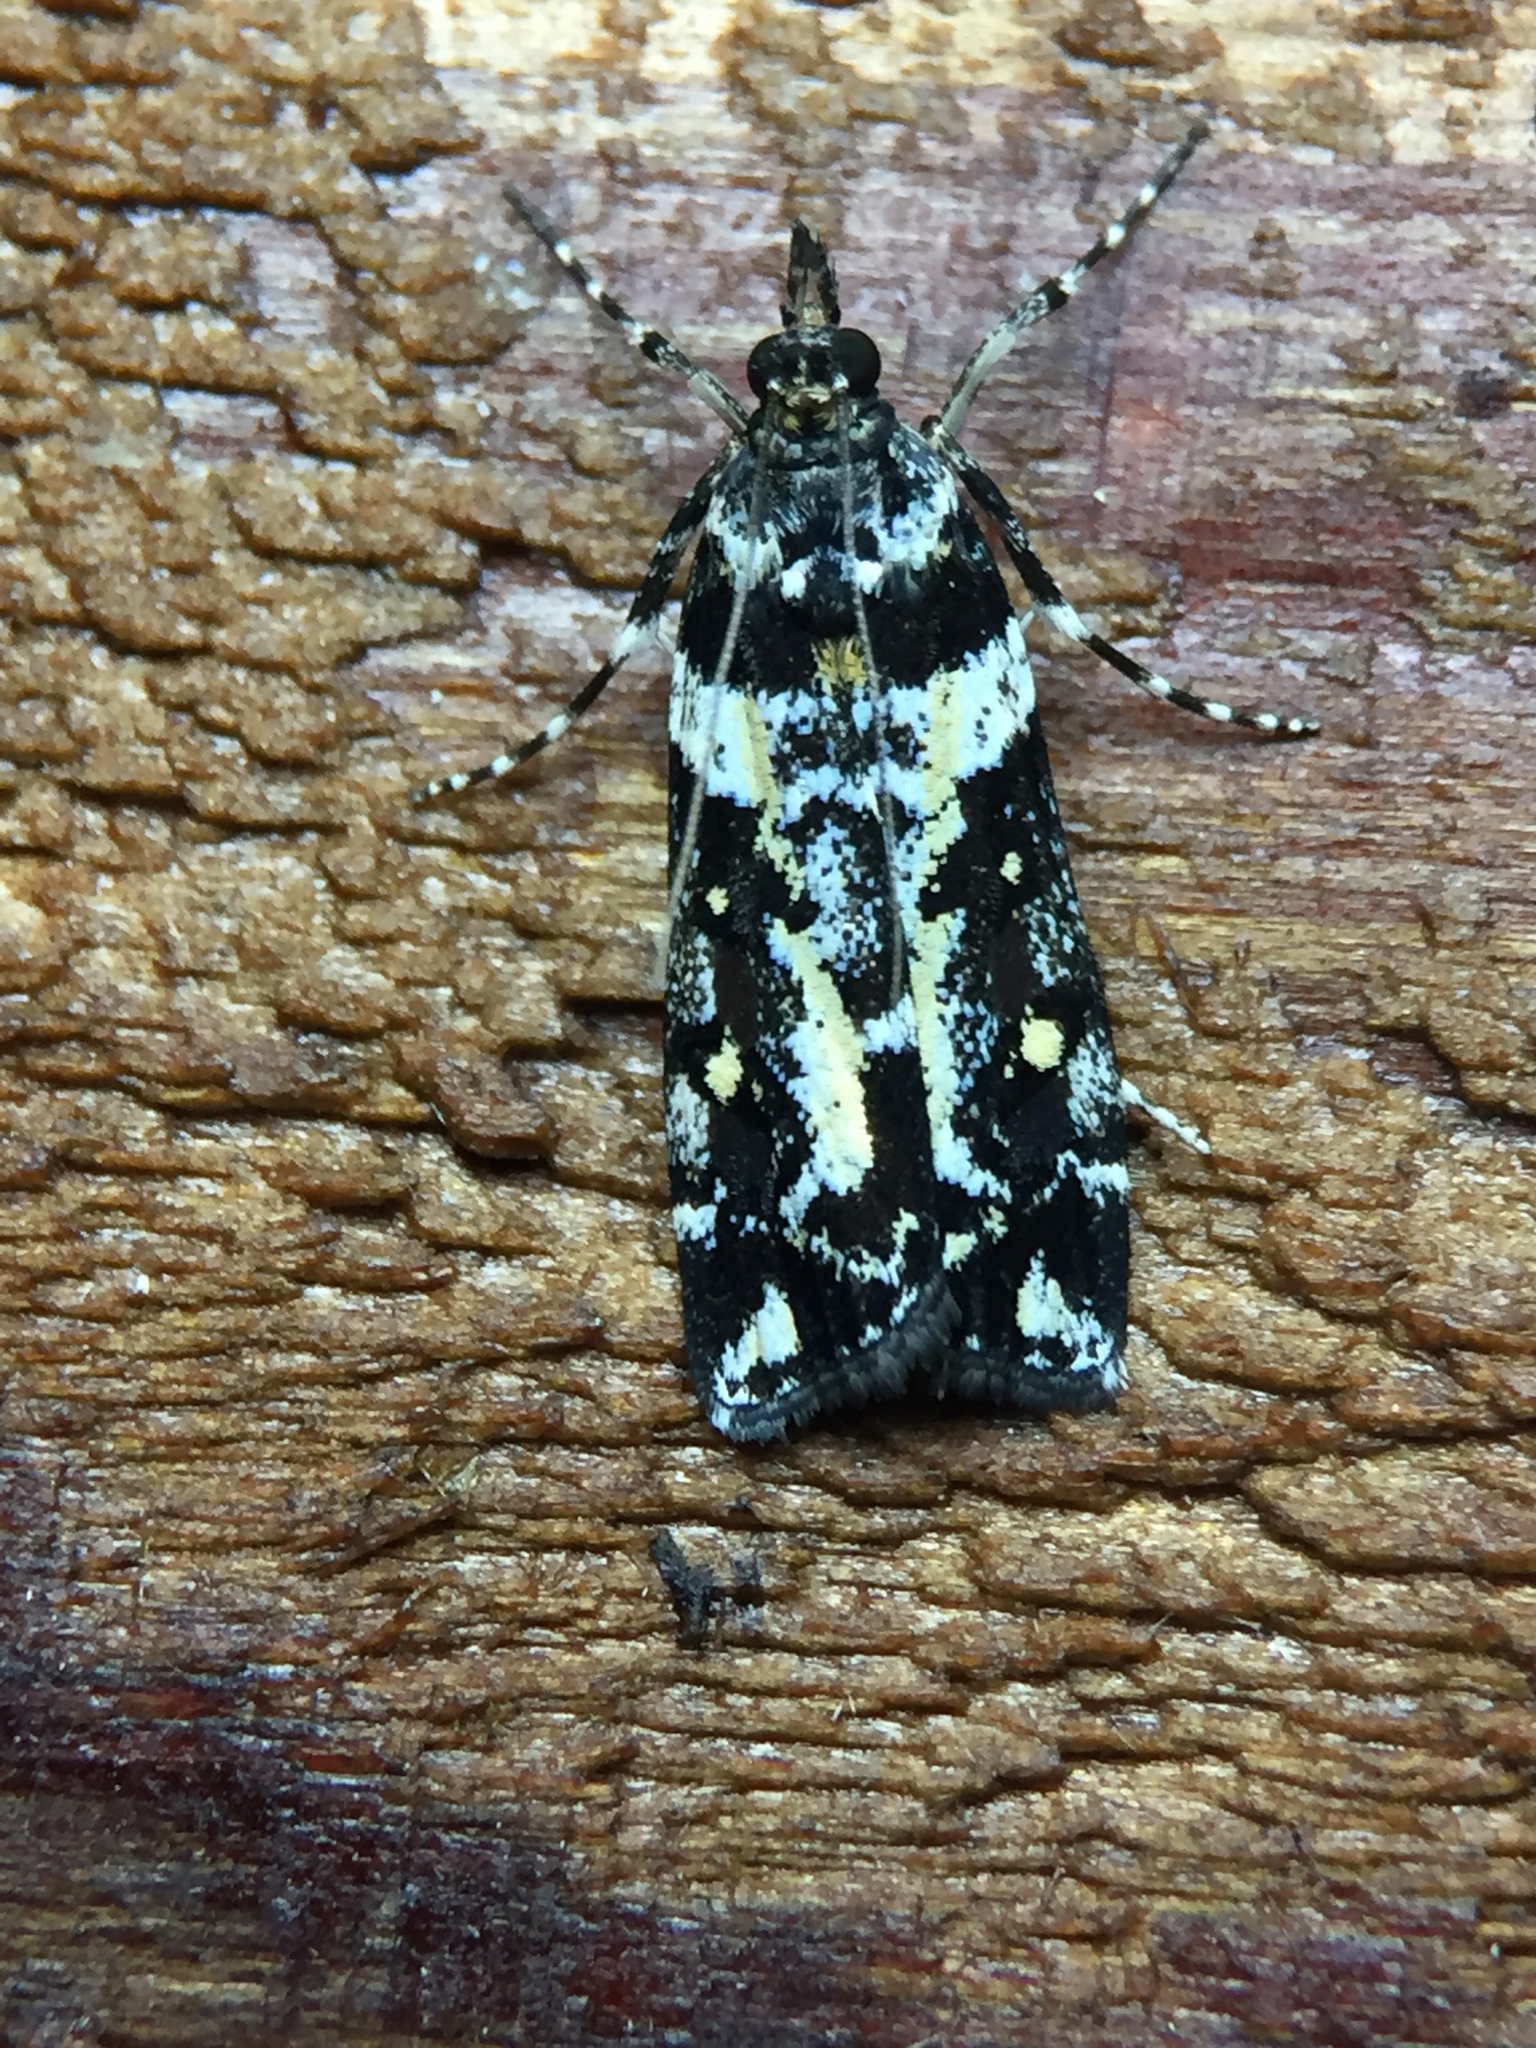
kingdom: Animalia
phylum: Arthropoda
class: Insecta
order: Lepidoptera
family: Crambidae
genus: Eudonia
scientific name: Eudonia diphtheralis
